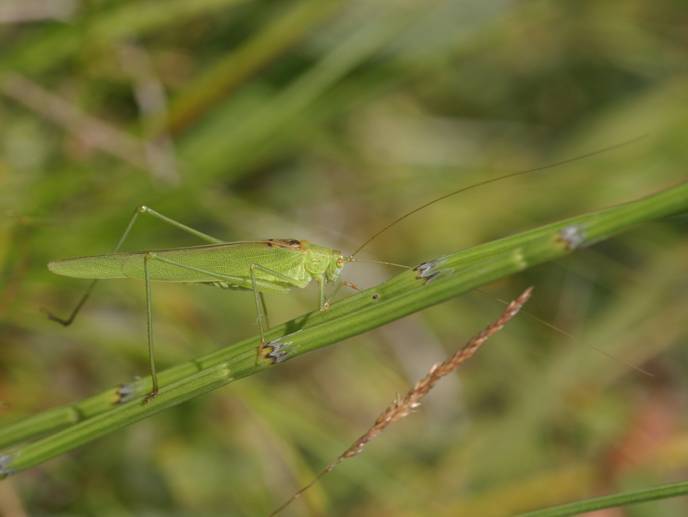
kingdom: Animalia
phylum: Arthropoda
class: Insecta
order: Orthoptera
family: Tettigoniidae
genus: Phaneroptera
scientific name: Phaneroptera falcata
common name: Sickle-bearing bush-cricket
